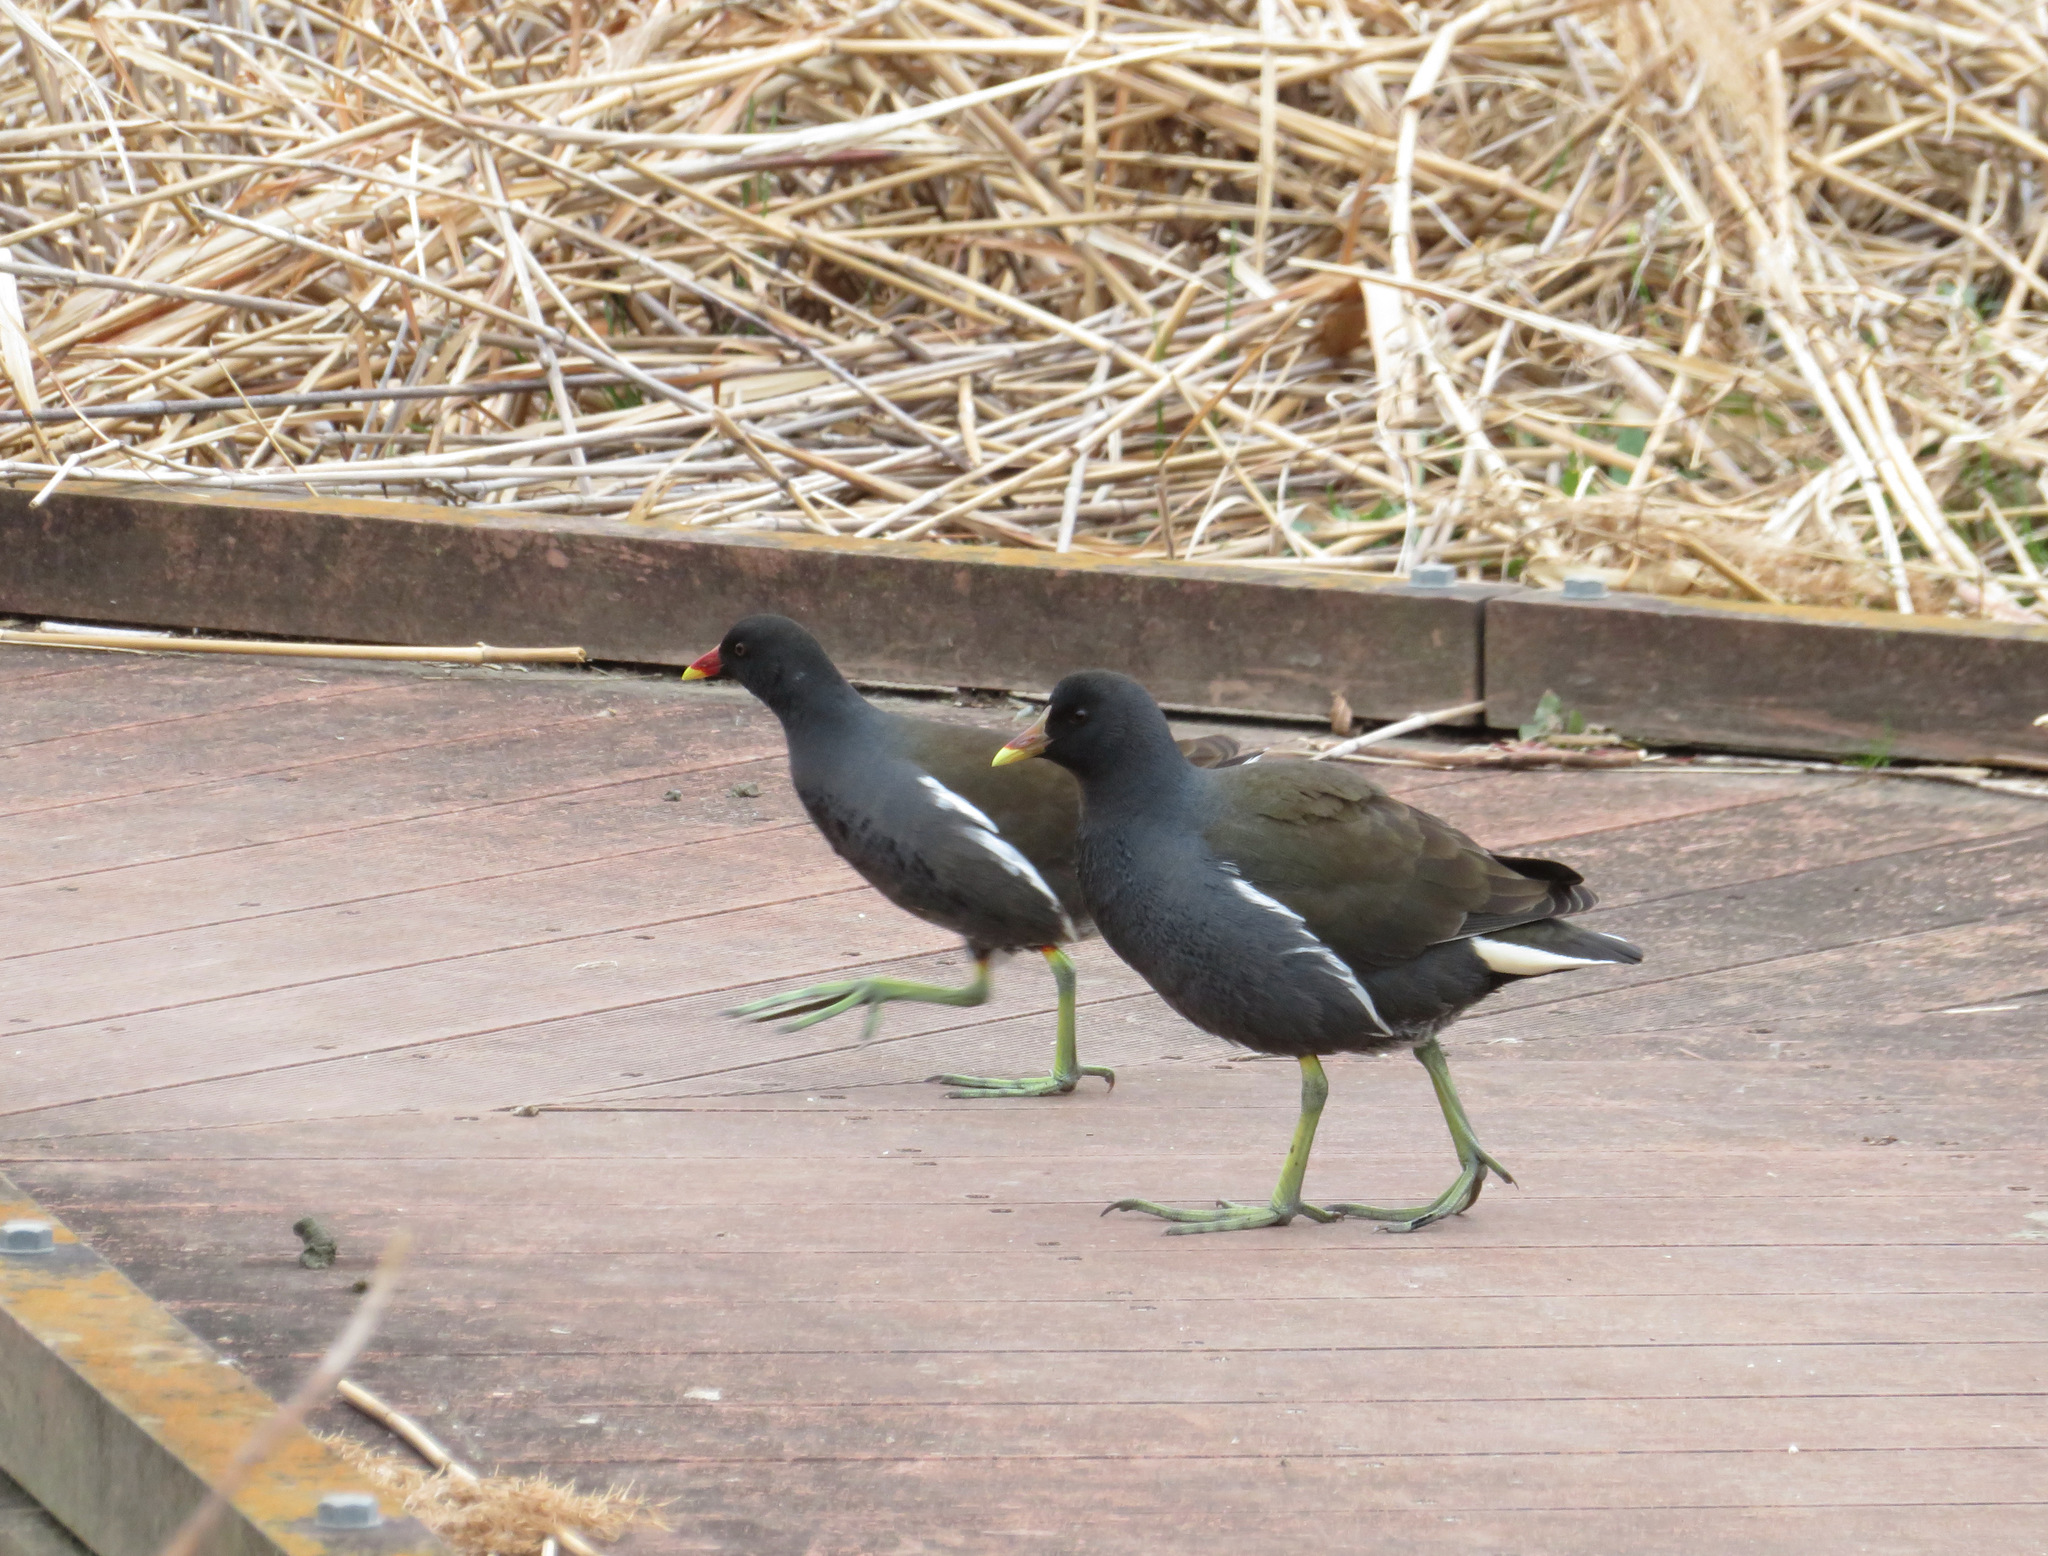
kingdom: Animalia
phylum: Chordata
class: Aves
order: Gruiformes
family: Rallidae
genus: Gallinula
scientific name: Gallinula chloropus
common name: Common moorhen
